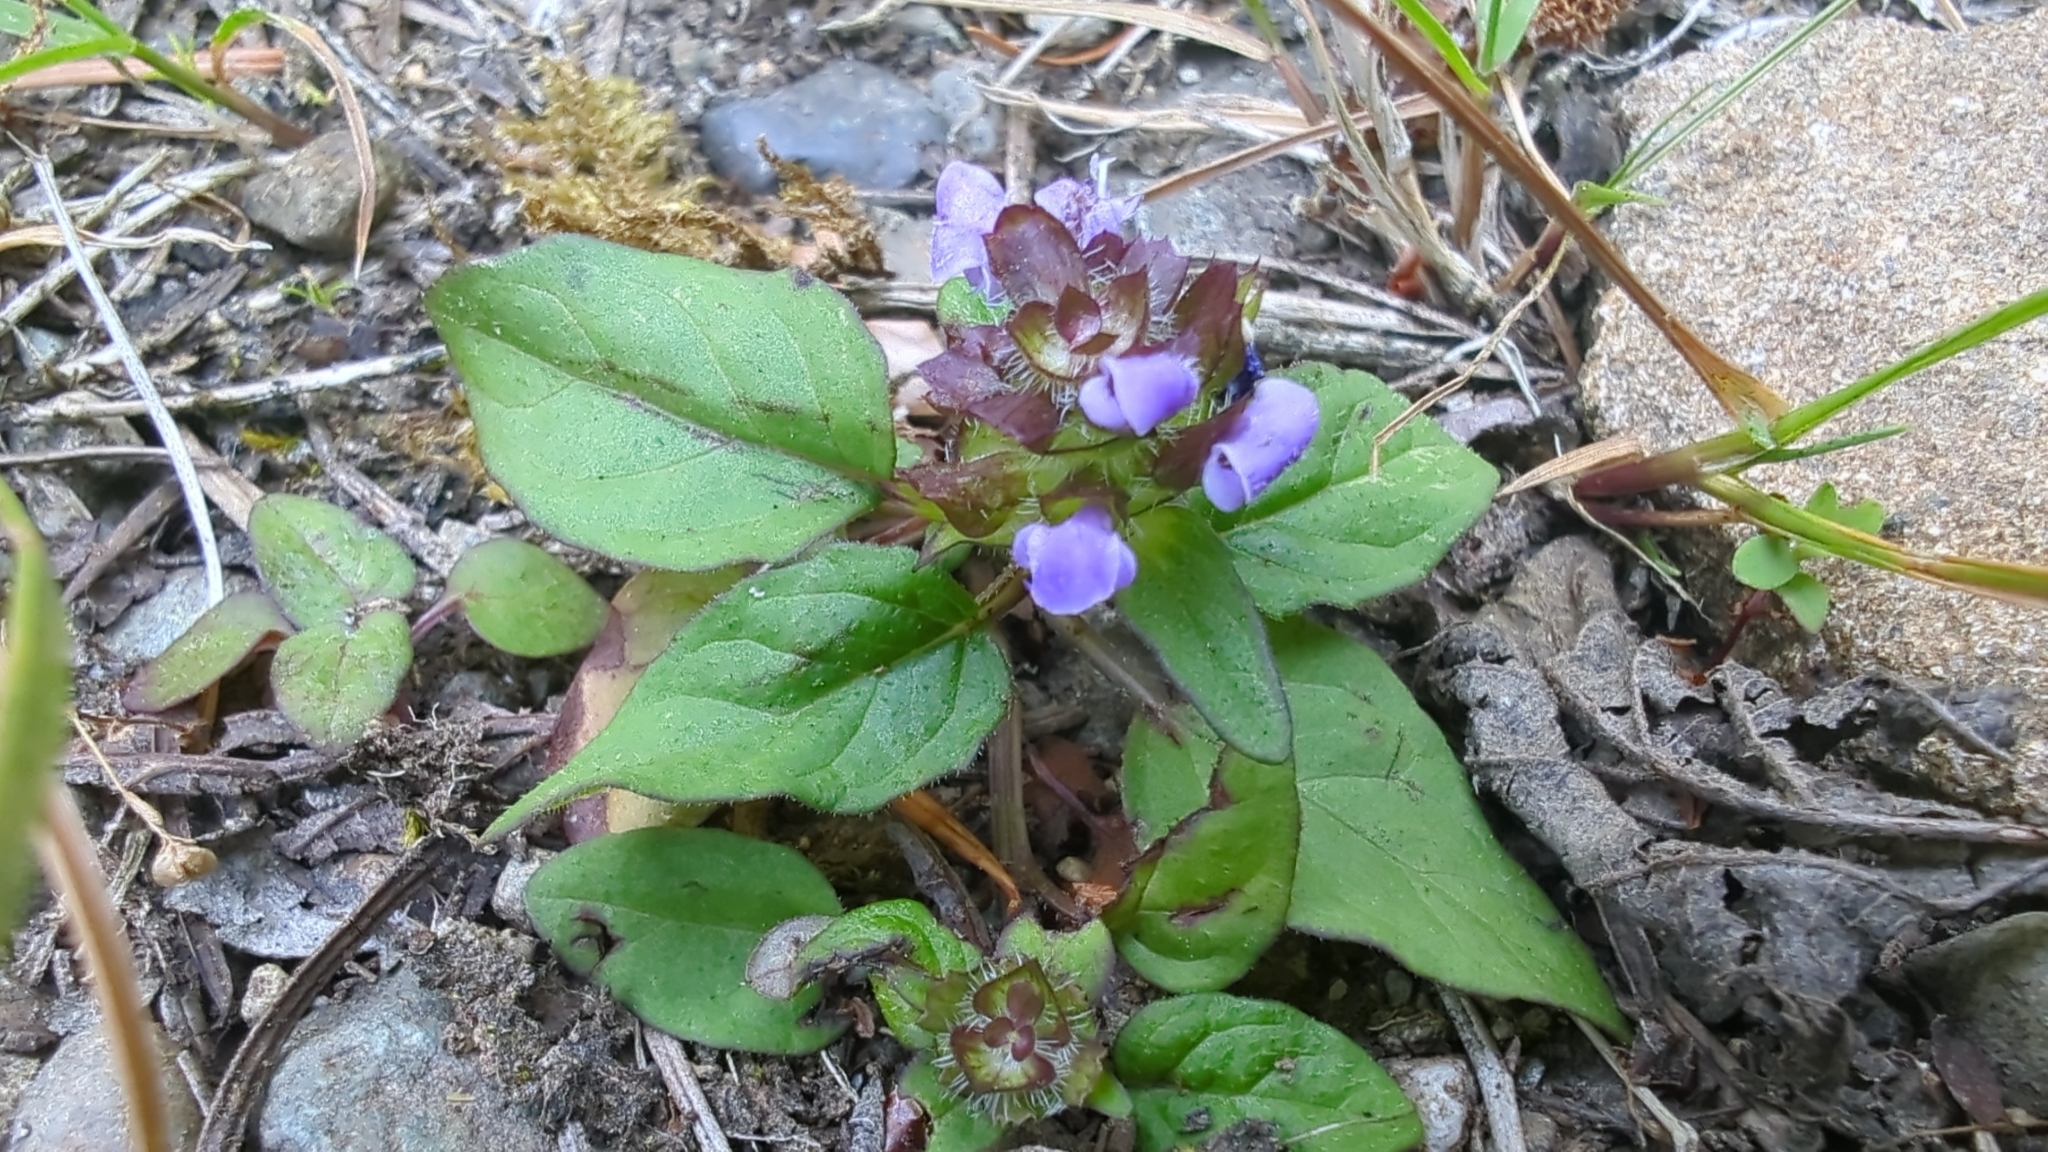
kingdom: Plantae
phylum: Tracheophyta
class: Magnoliopsida
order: Lamiales
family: Lamiaceae
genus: Prunella
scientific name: Prunella vulgaris
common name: Heal-all
